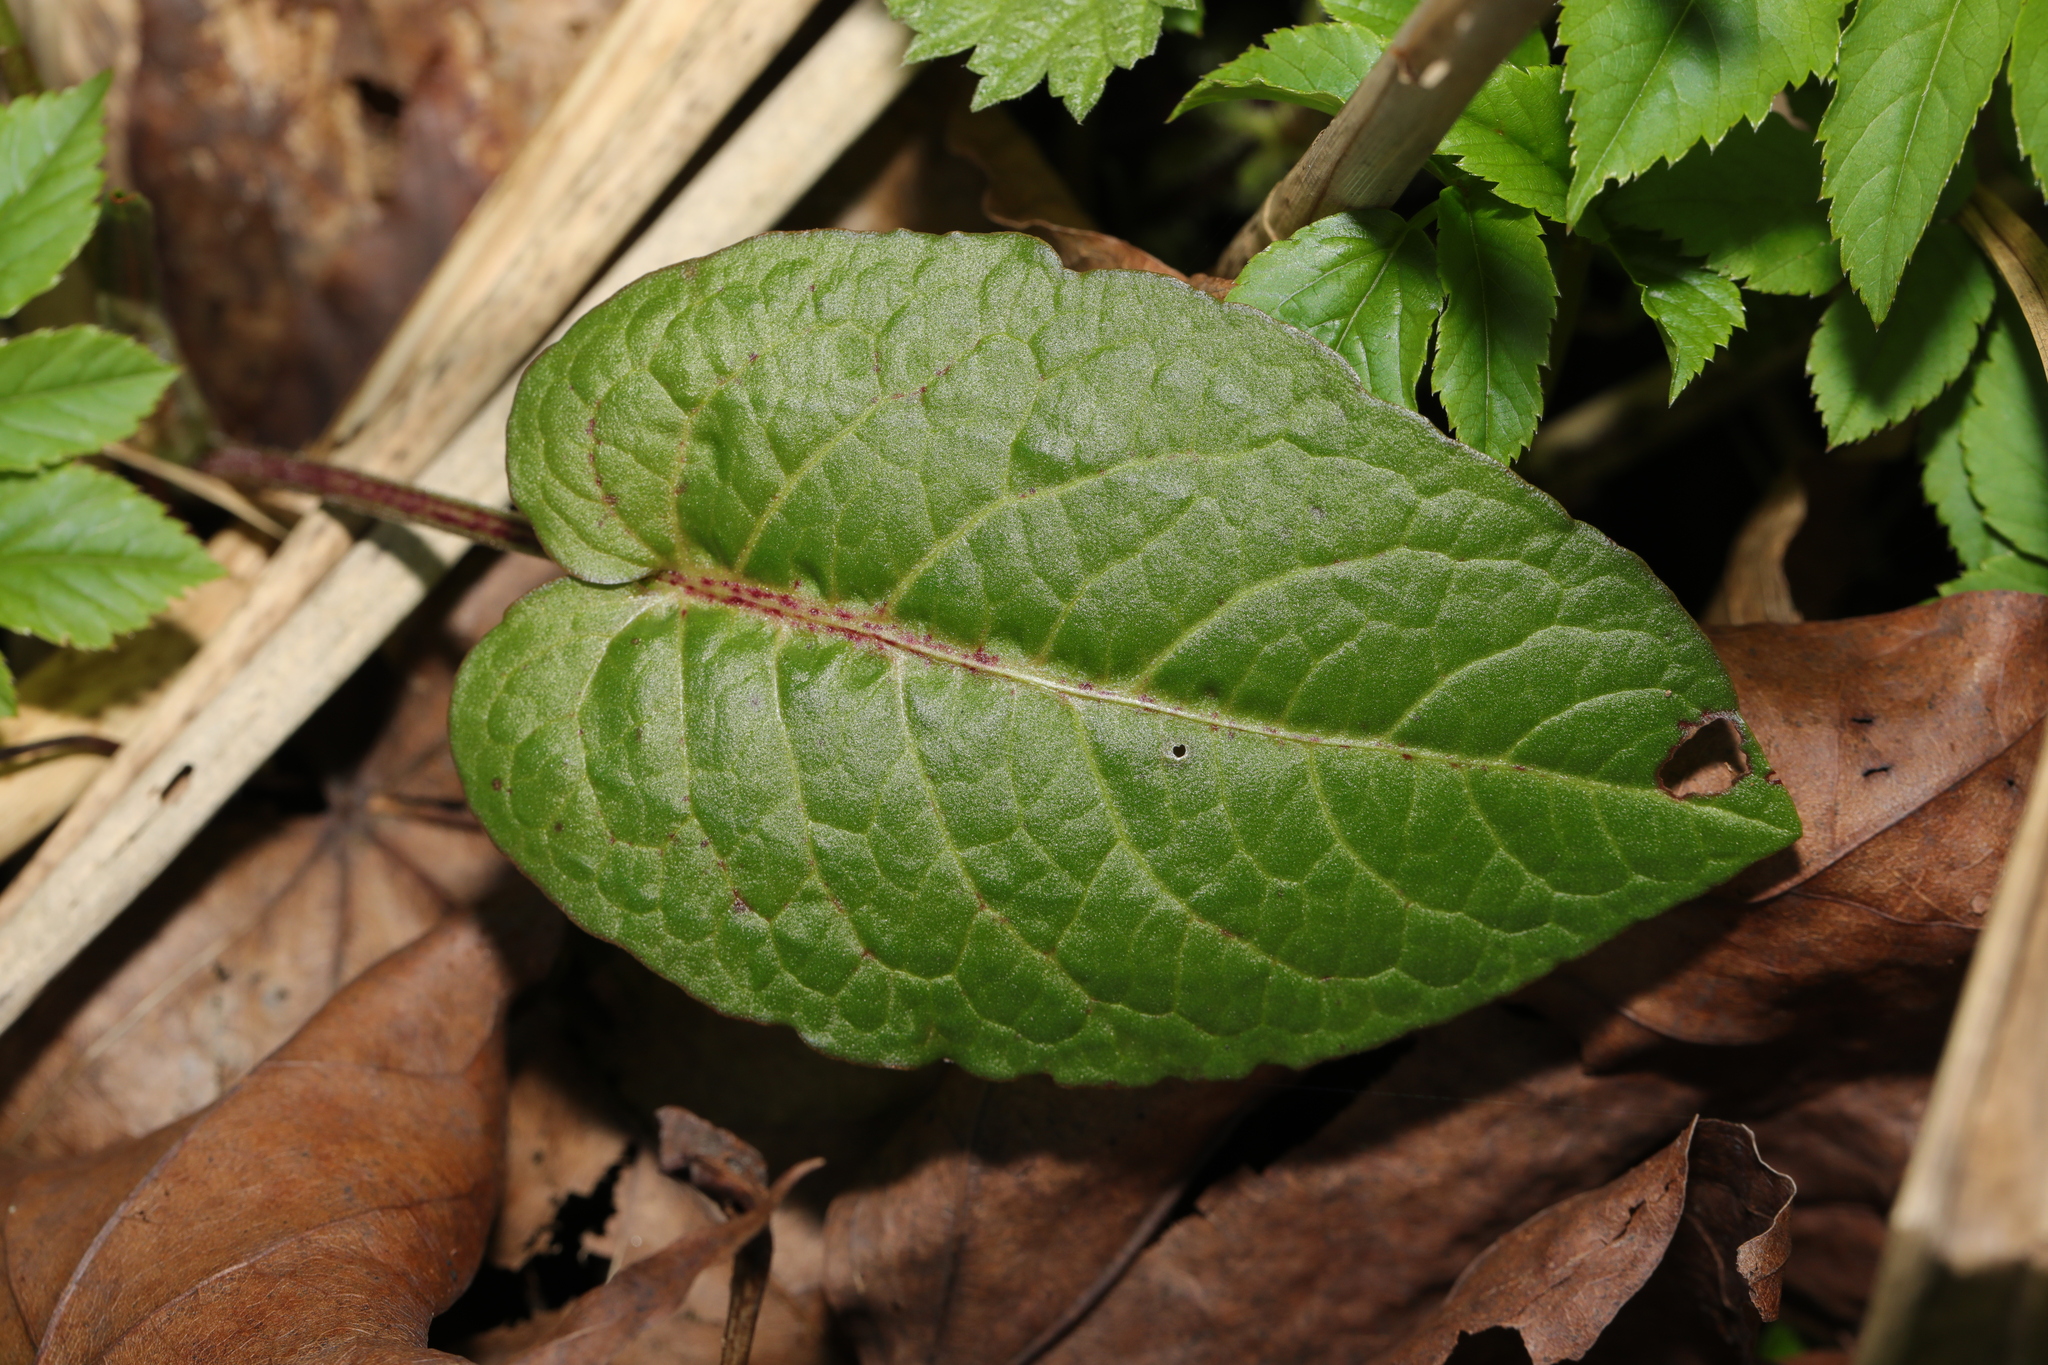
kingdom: Plantae
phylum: Tracheophyta
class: Magnoliopsida
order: Caryophyllales
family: Polygonaceae
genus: Rumex
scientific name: Rumex obtusifolius
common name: Bitter dock
